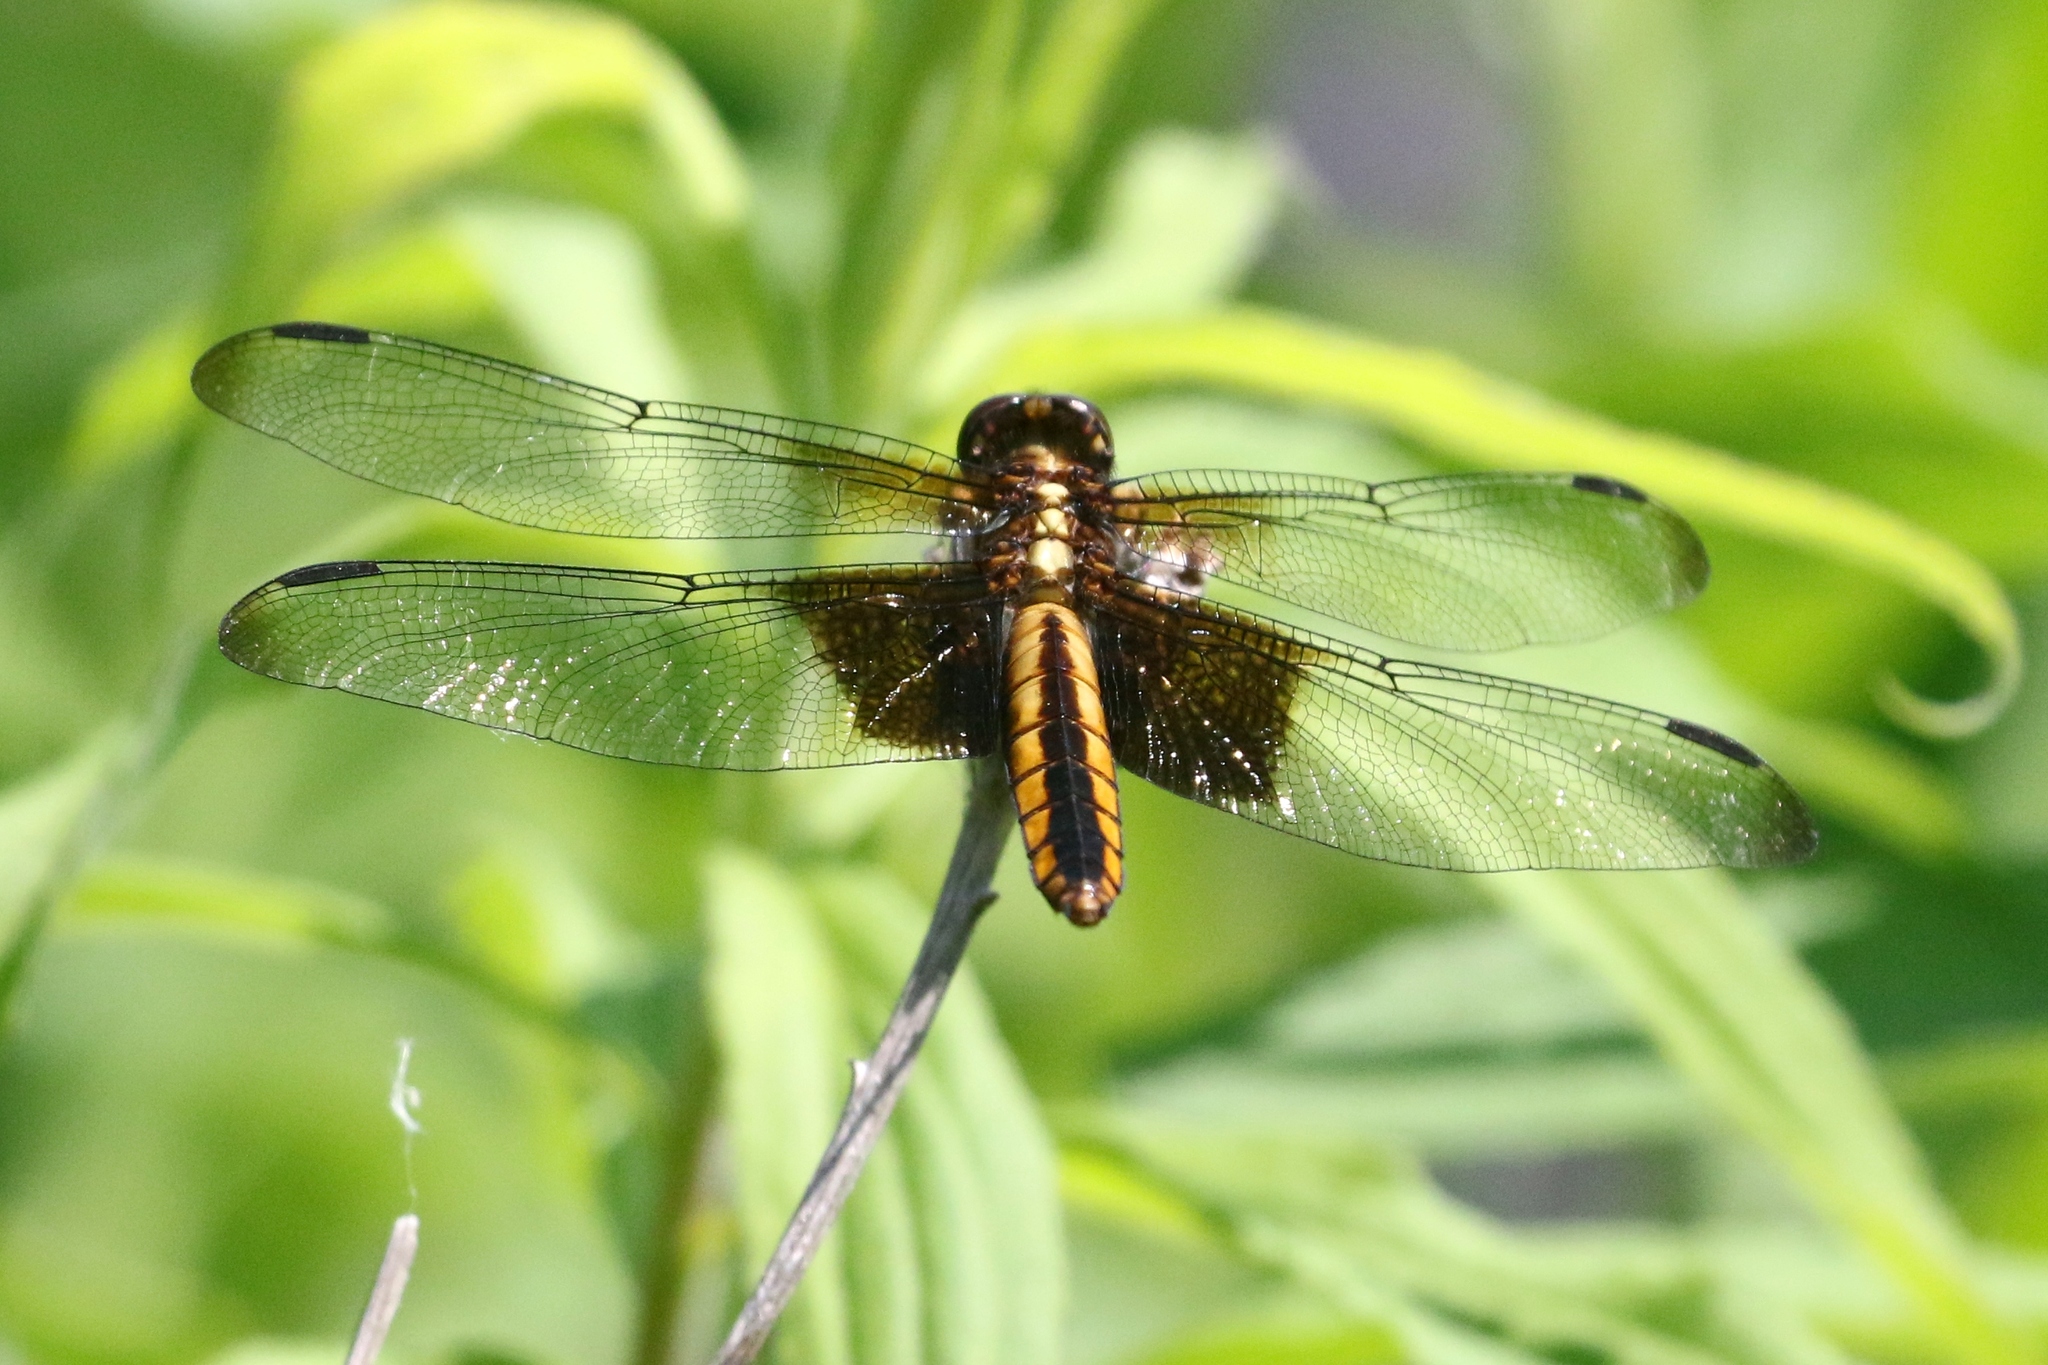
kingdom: Animalia
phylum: Arthropoda
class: Insecta
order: Odonata
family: Libellulidae
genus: Libellula
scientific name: Libellula luctuosa
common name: Widow skimmer
